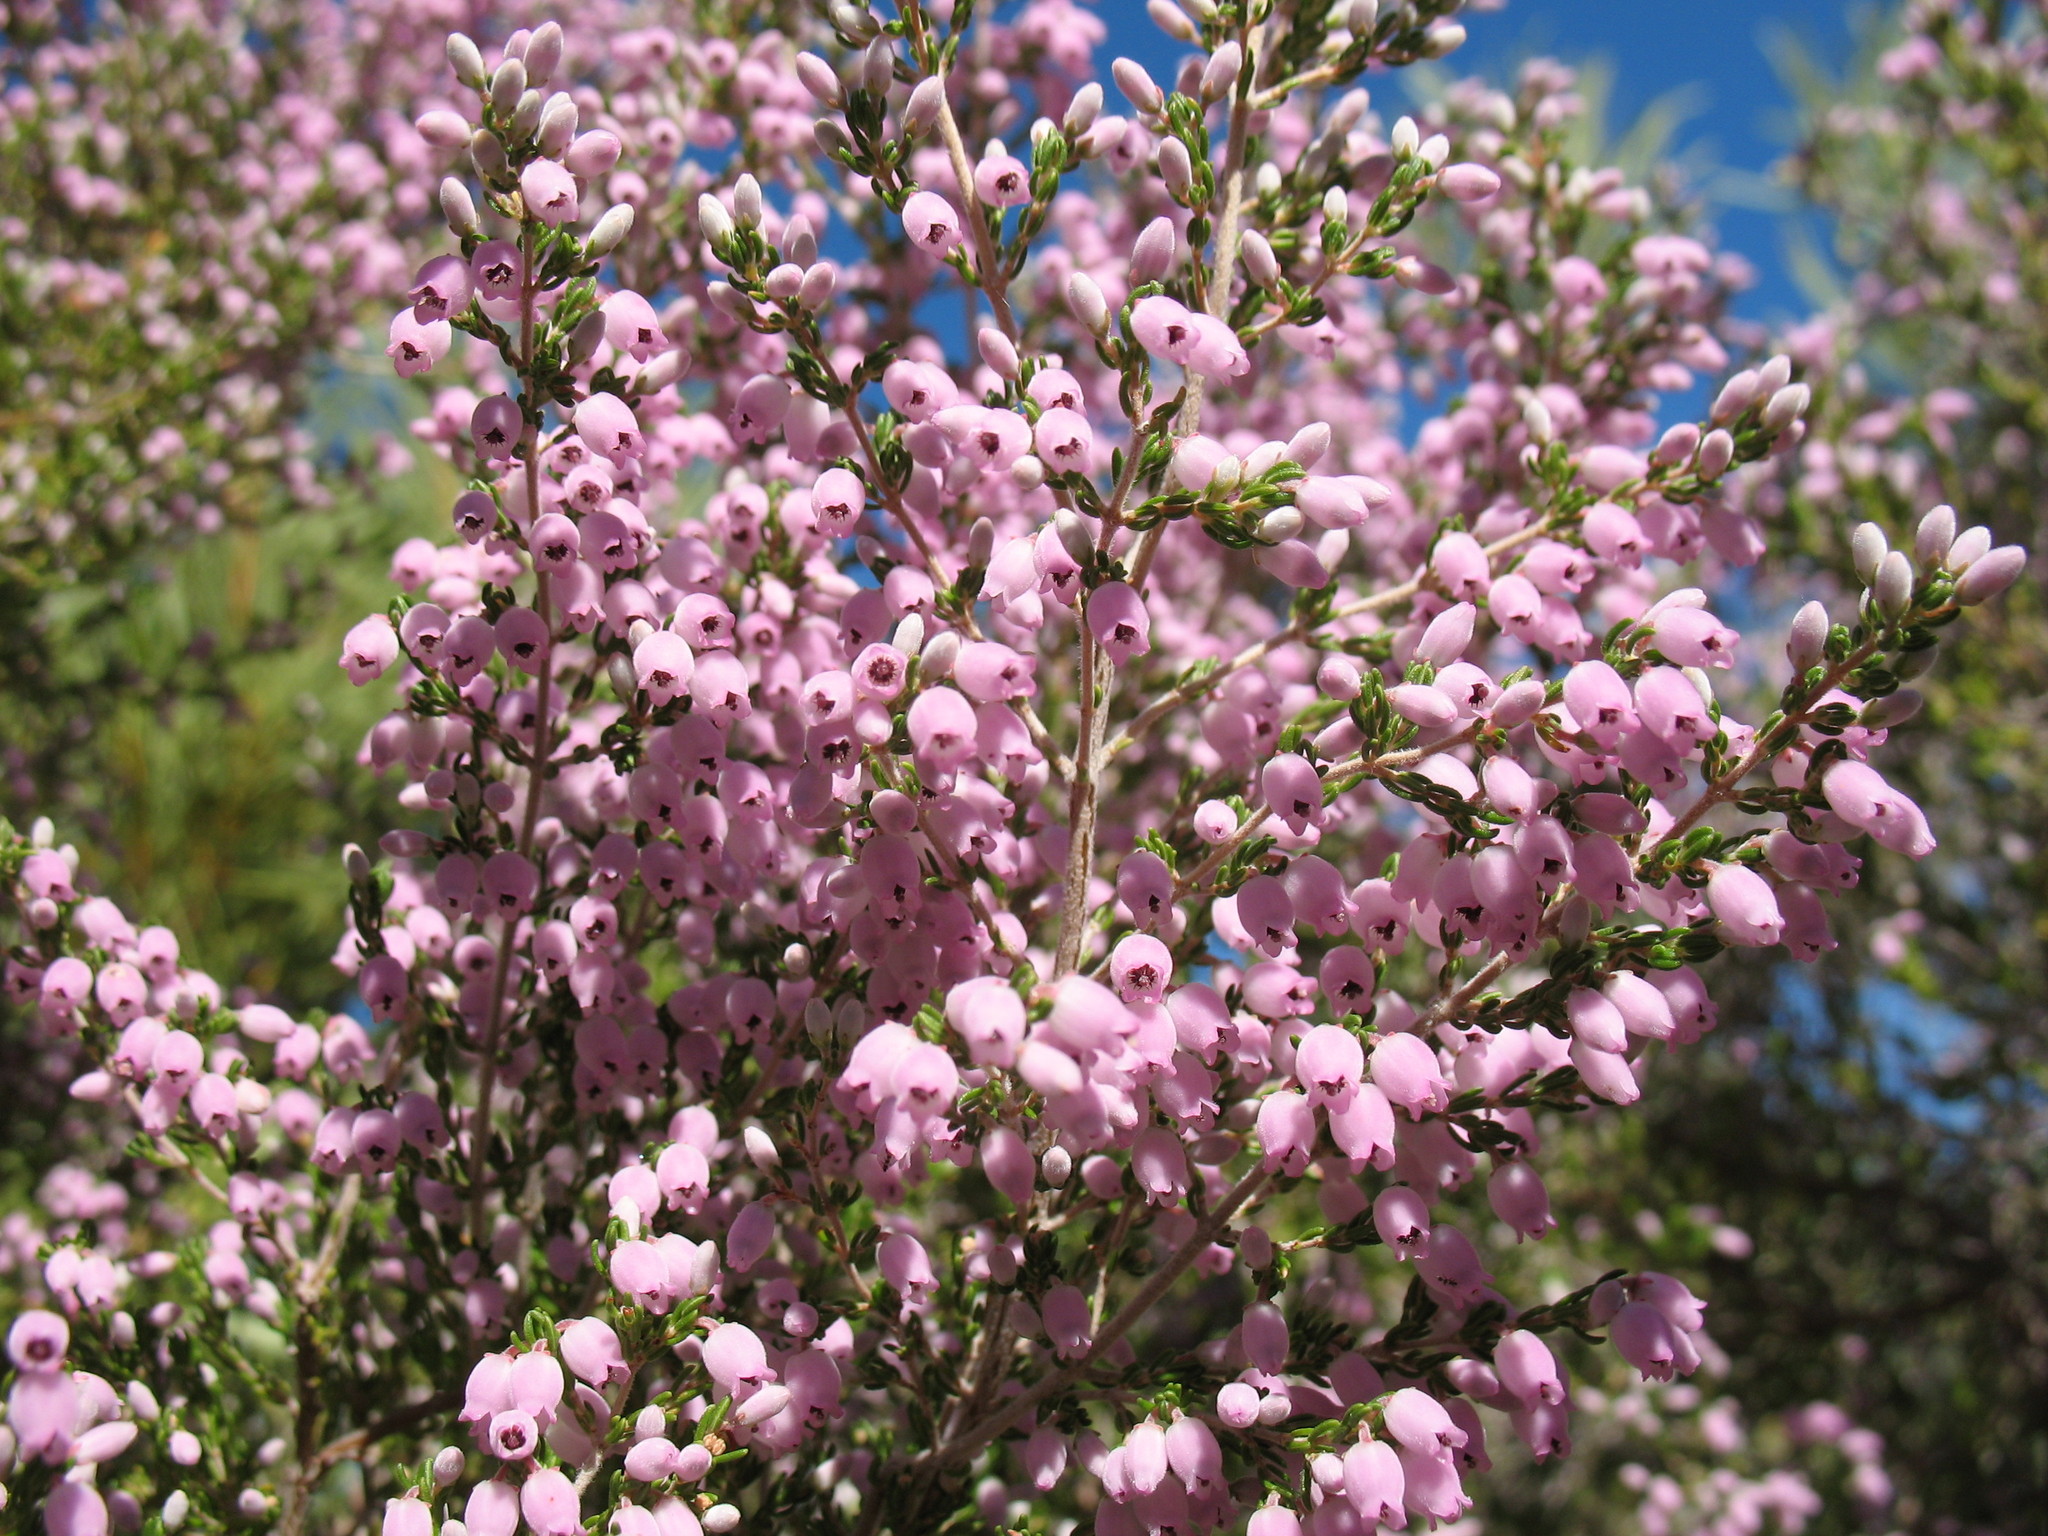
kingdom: Plantae
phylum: Tracheophyta
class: Magnoliopsida
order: Ericales
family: Ericaceae
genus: Erica
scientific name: Erica tomentosa
